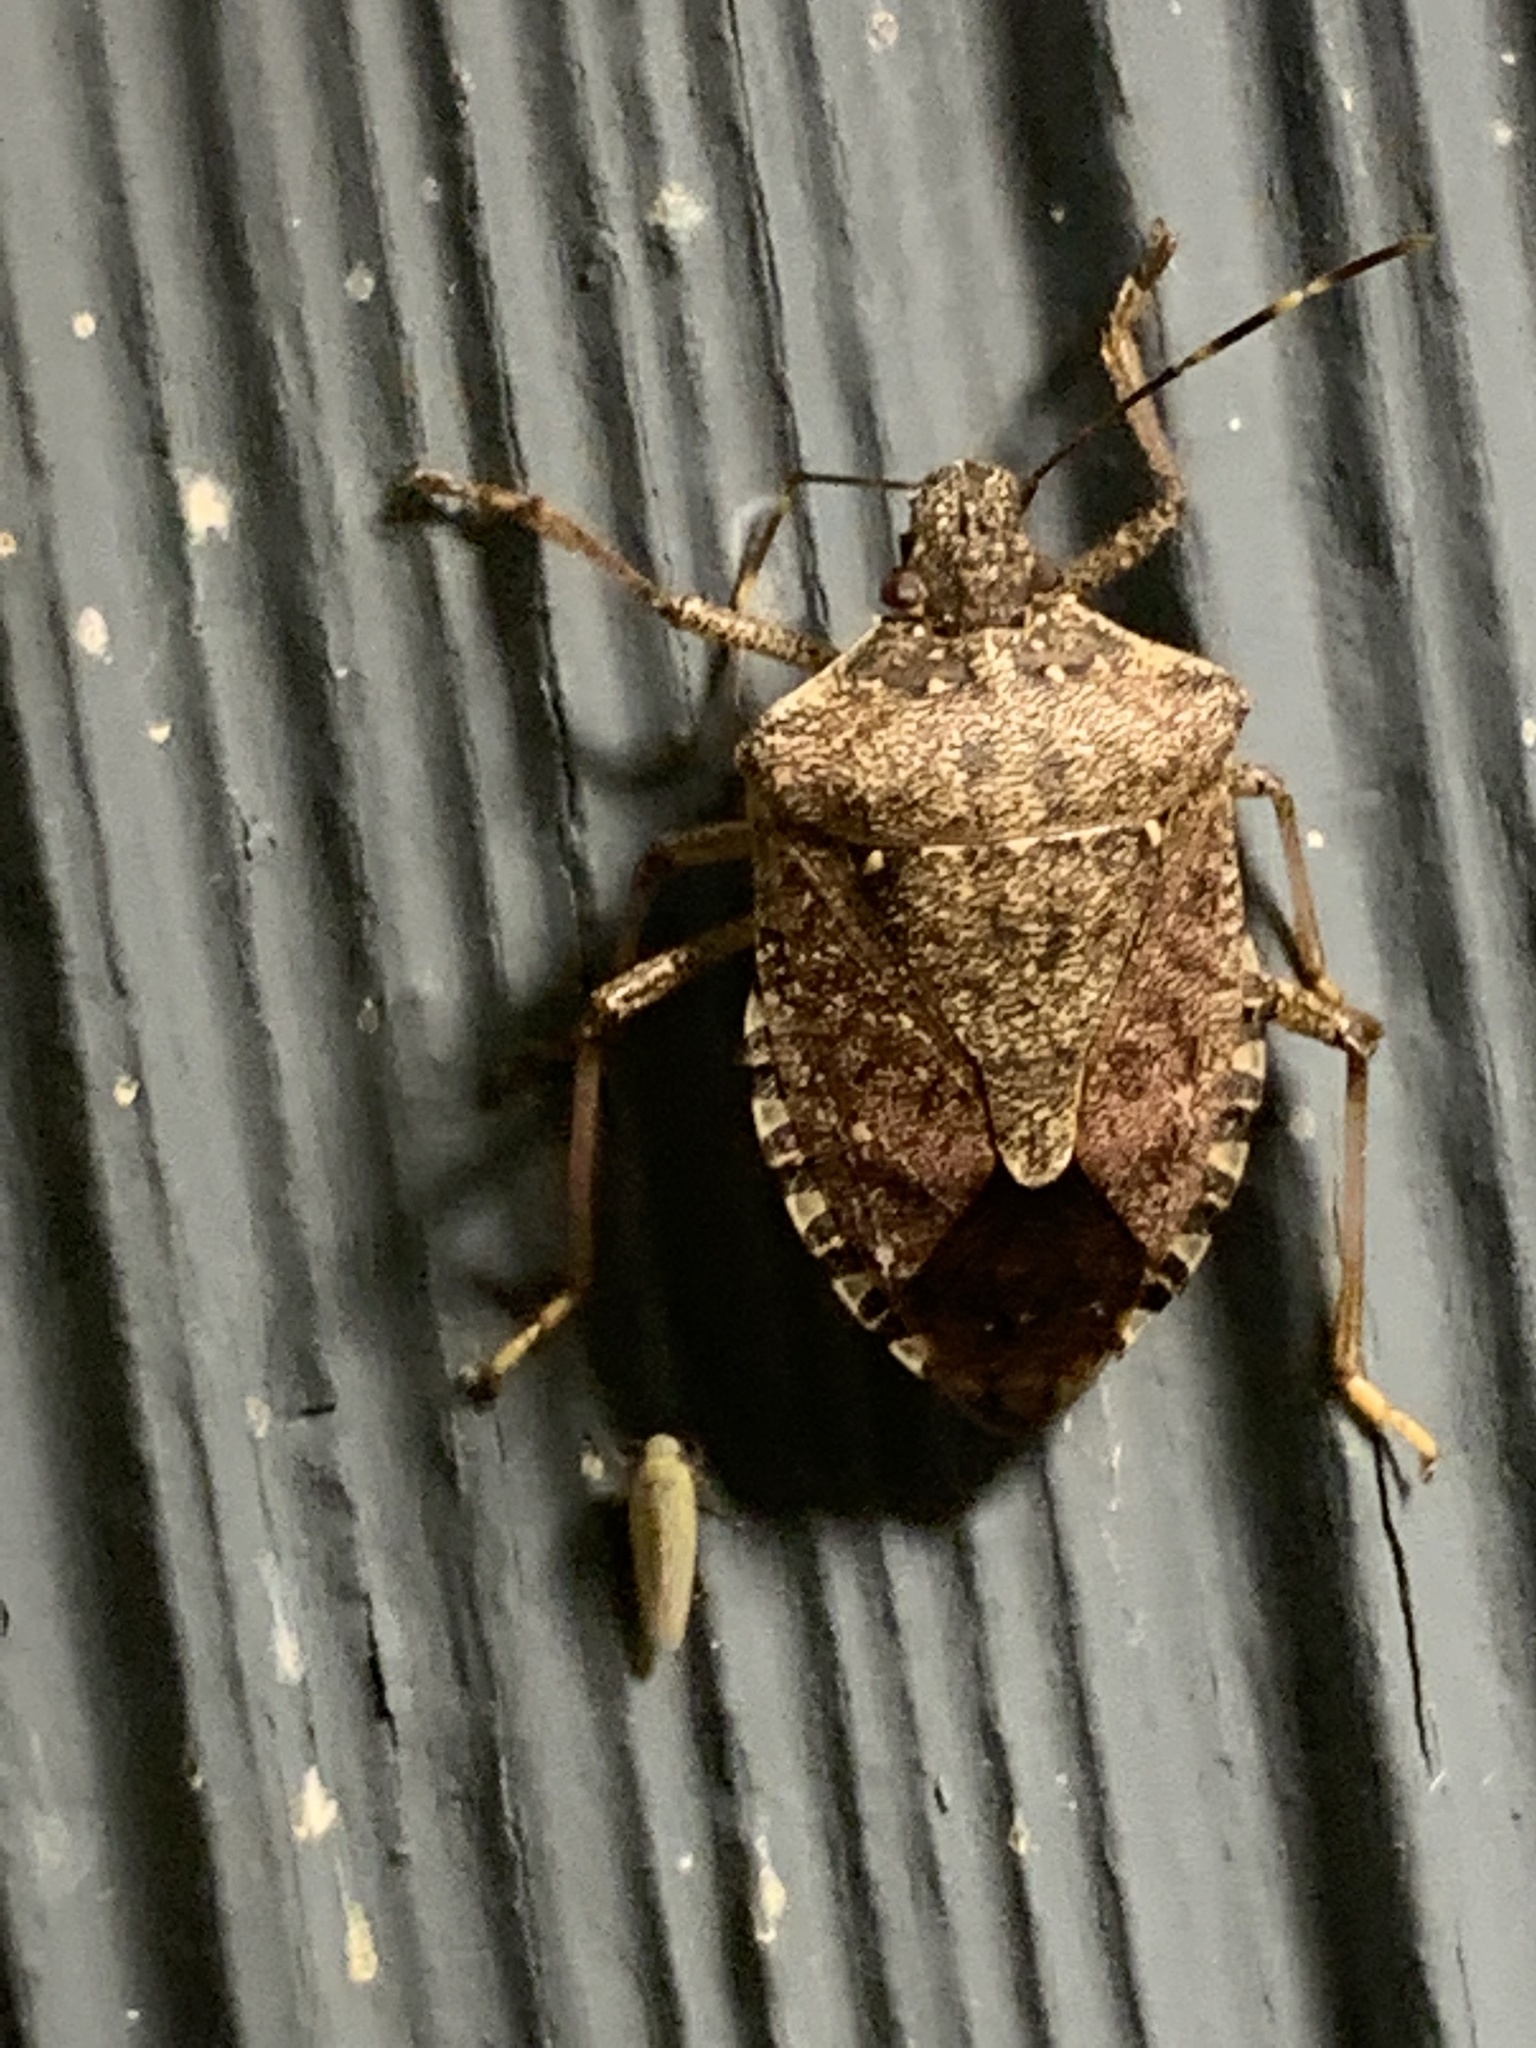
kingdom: Animalia
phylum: Arthropoda
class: Insecta
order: Hemiptera
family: Pentatomidae
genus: Halyomorpha
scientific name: Halyomorpha halys
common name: Brown marmorated stink bug
